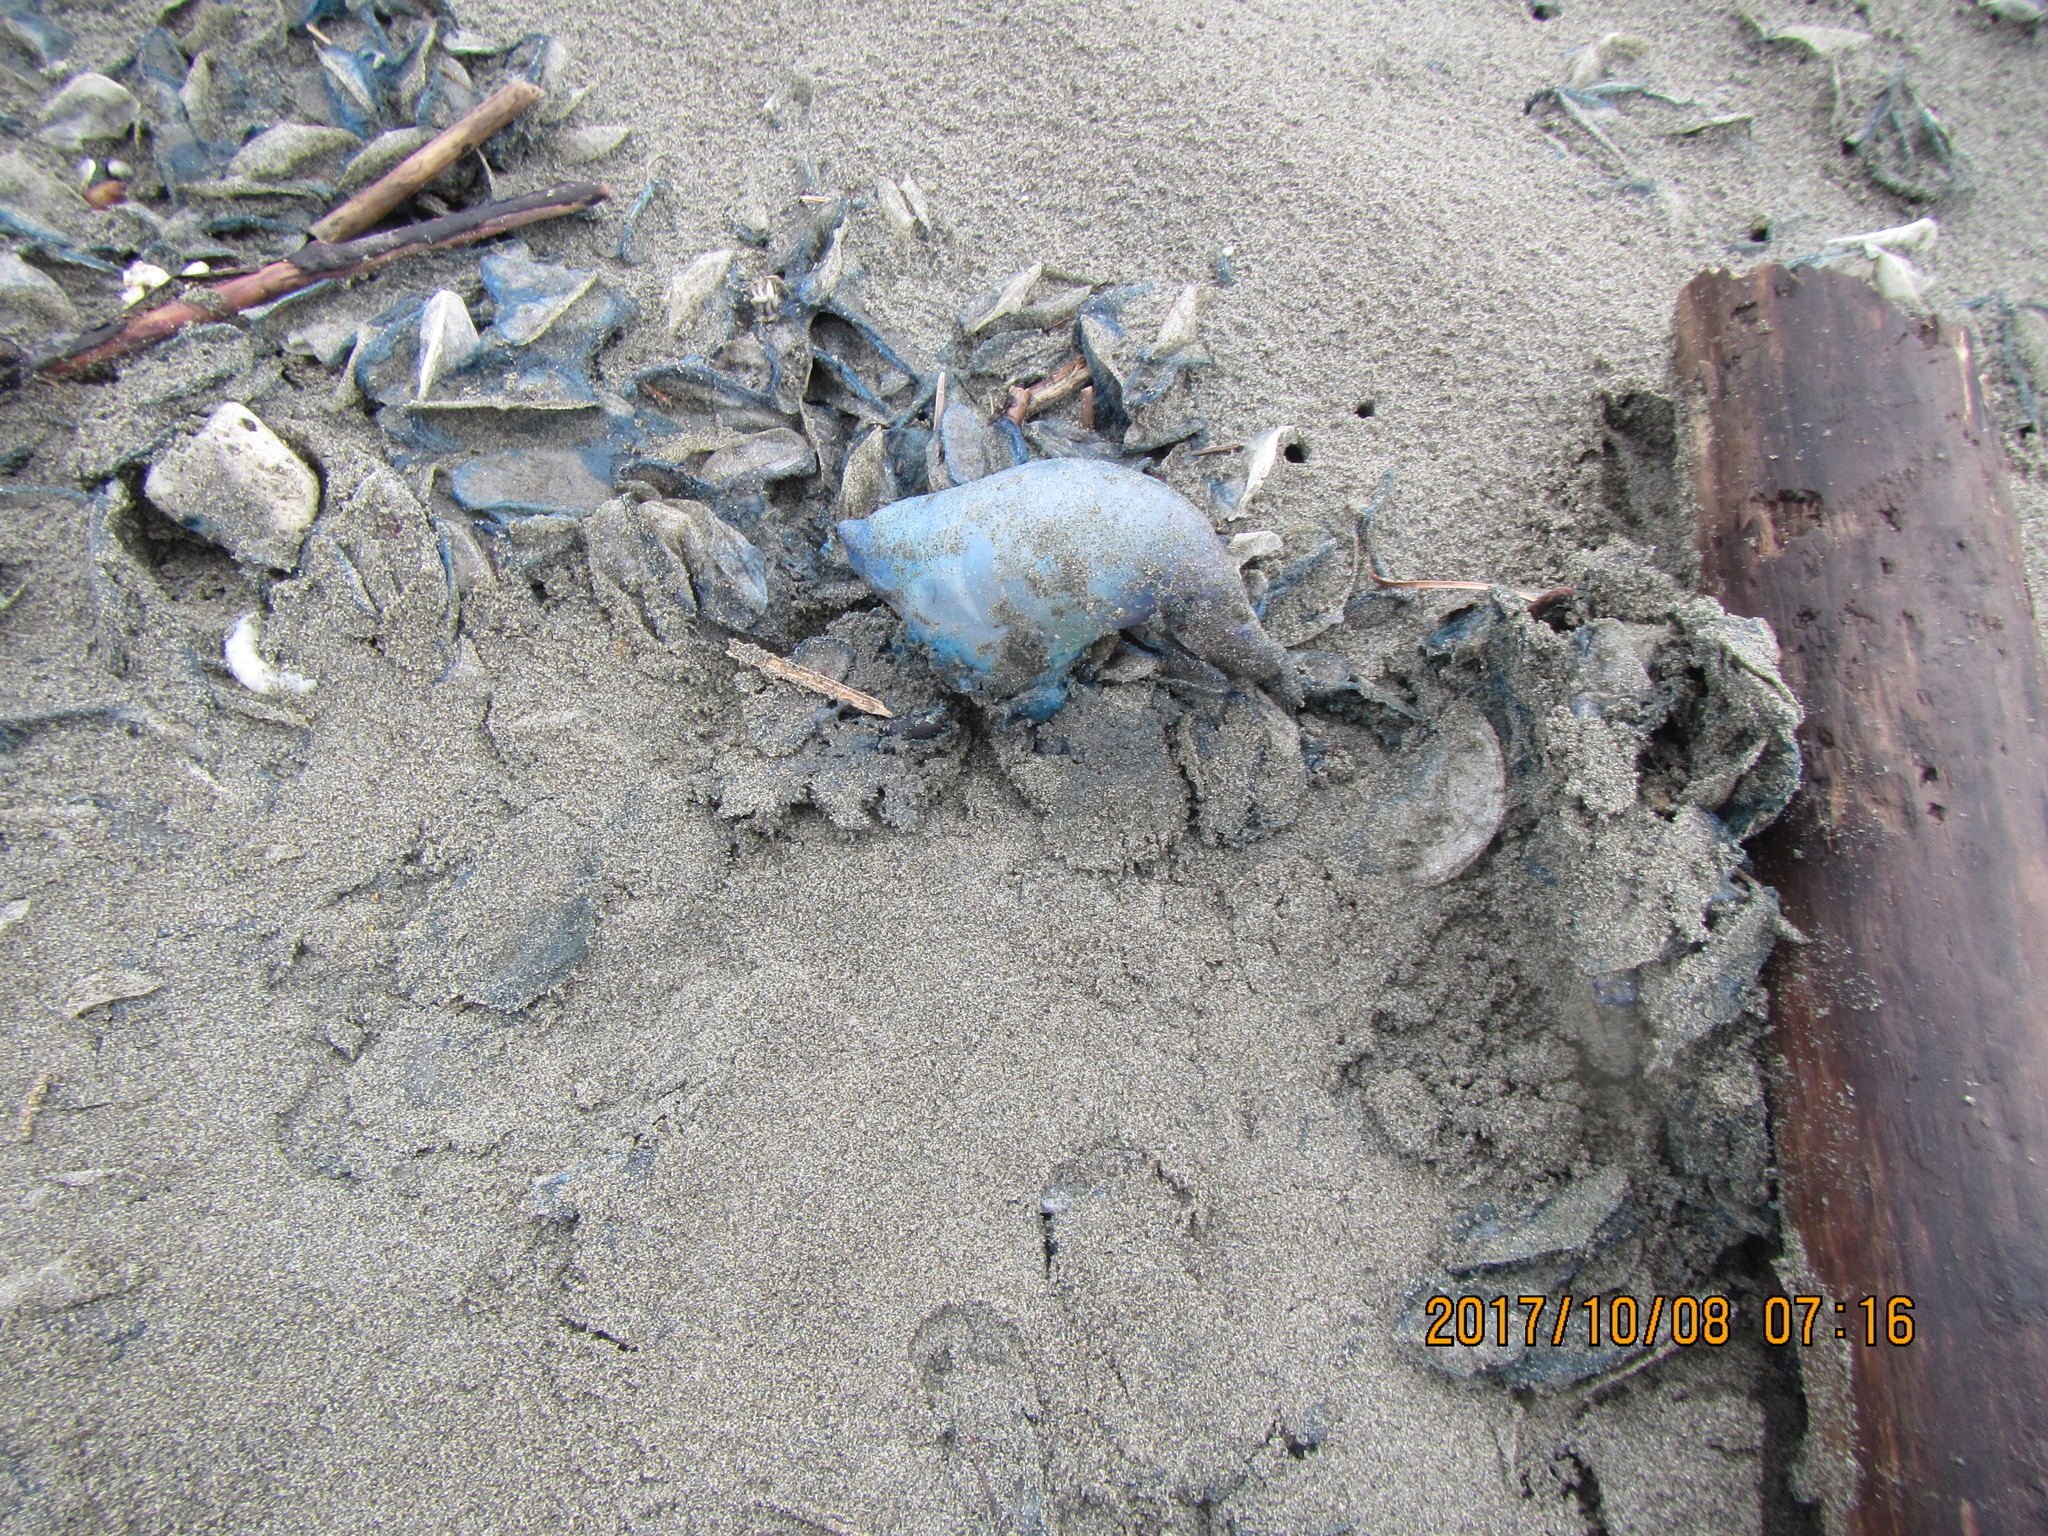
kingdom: Animalia
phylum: Cnidaria
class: Hydrozoa
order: Siphonophorae
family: Physaliidae
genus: Physalia
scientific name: Physalia physalis
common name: Portuguese man-of-war
